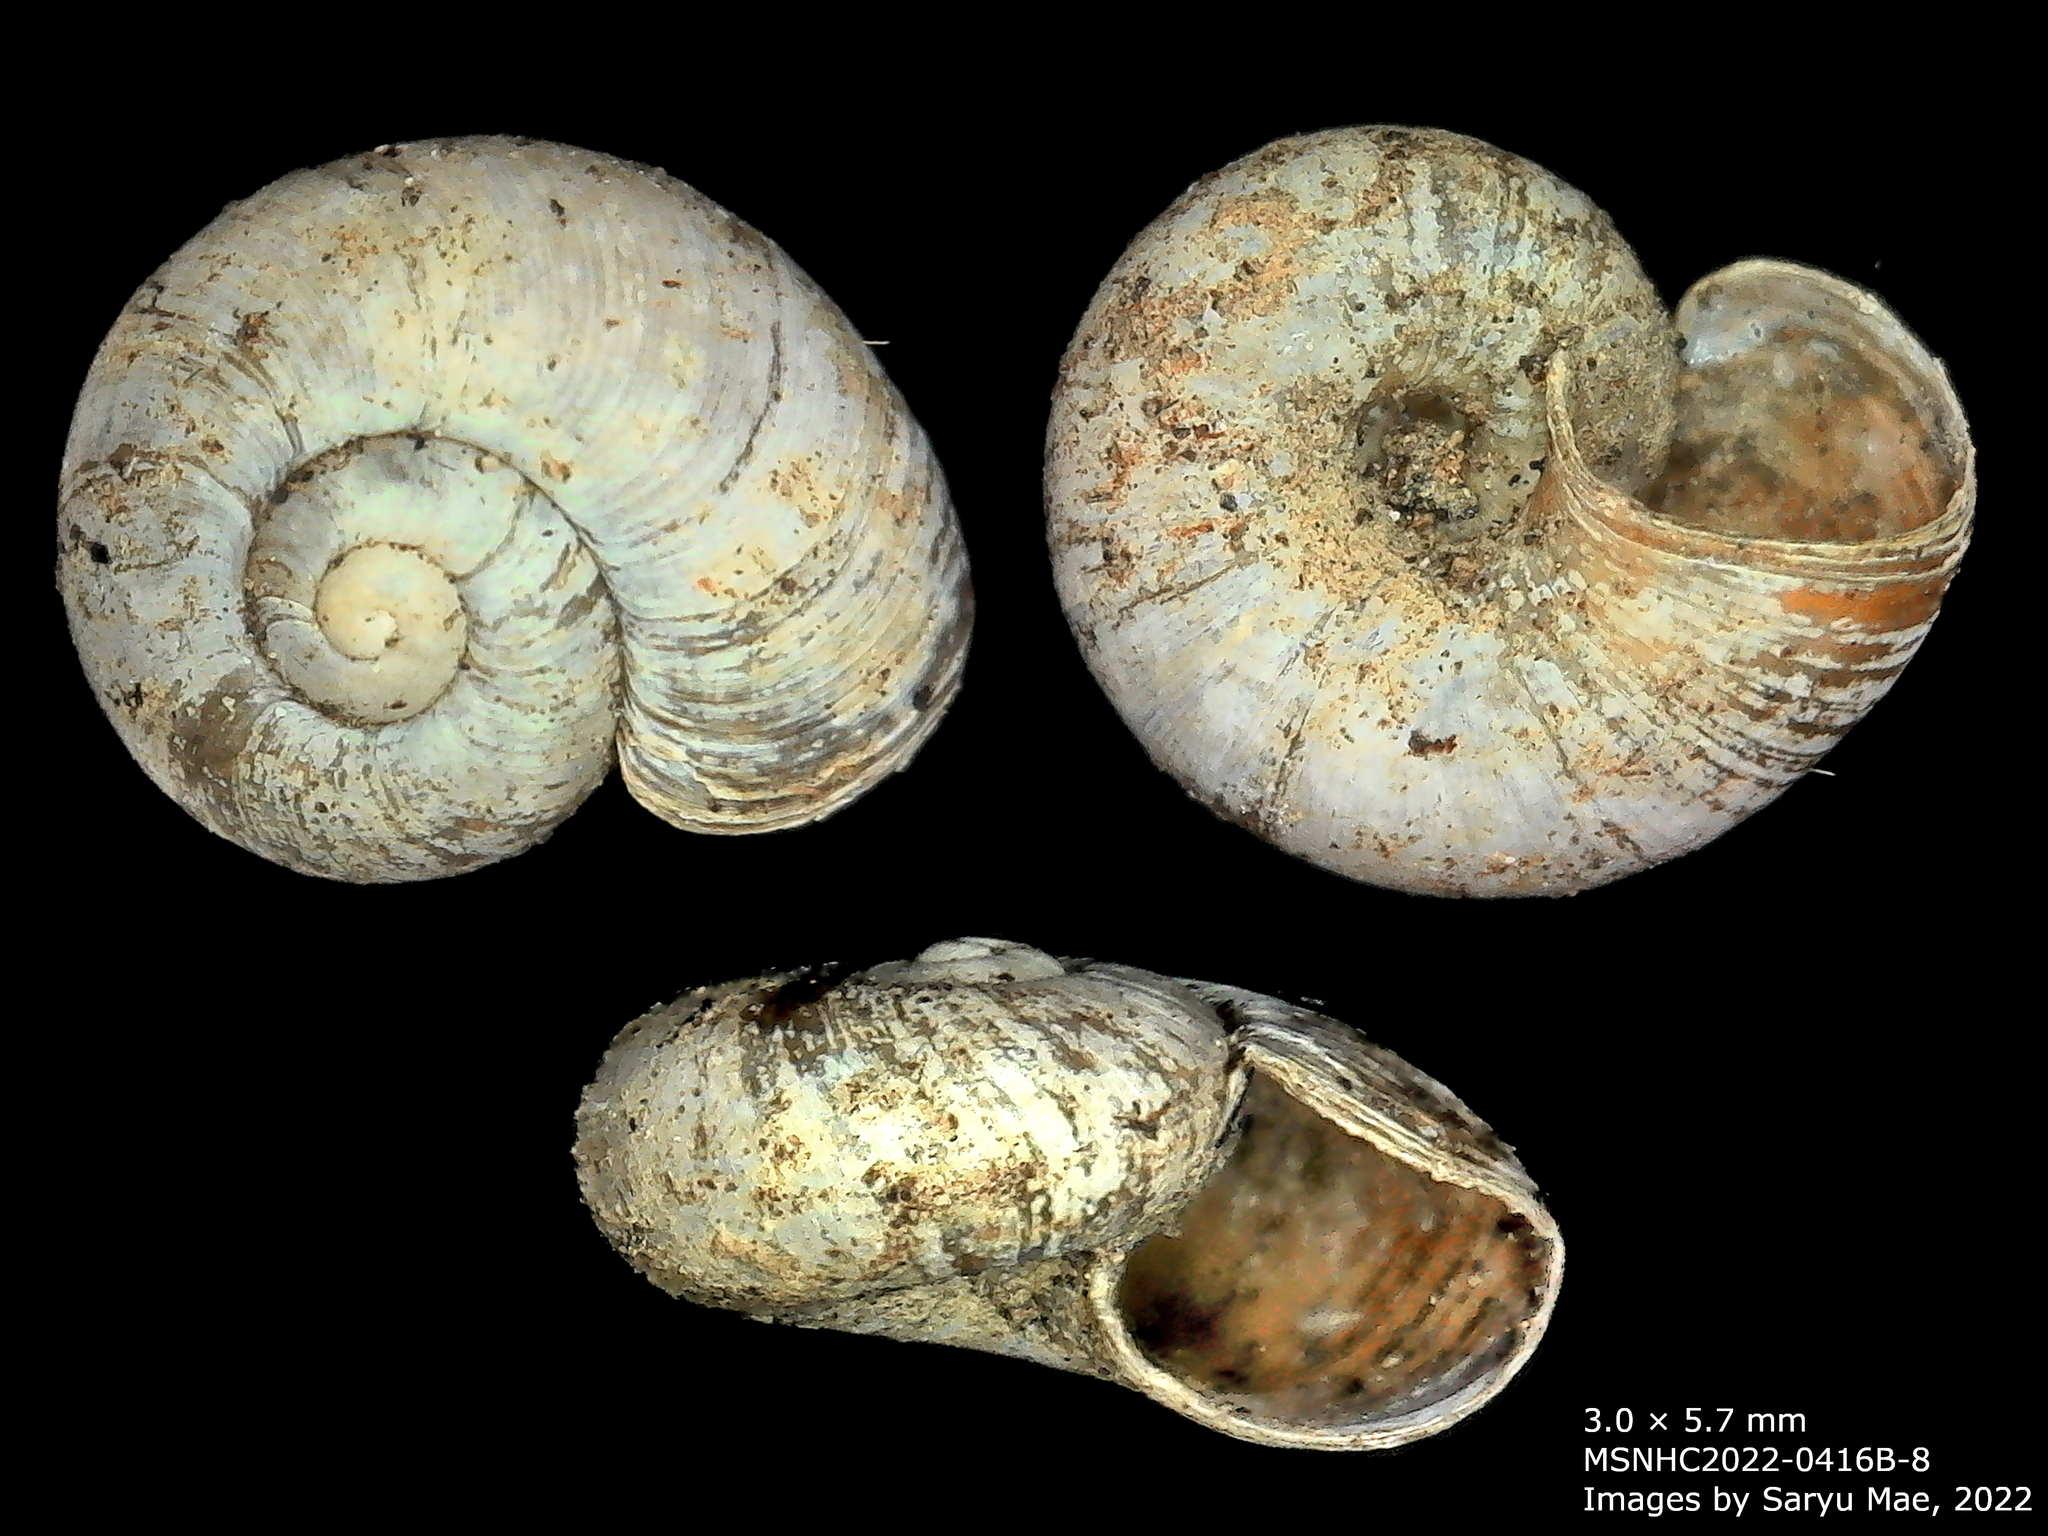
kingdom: Animalia
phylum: Mollusca
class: Gastropoda
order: Stylommatophora
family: Charopidae
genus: Flammulina
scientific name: Flammulina chiron
